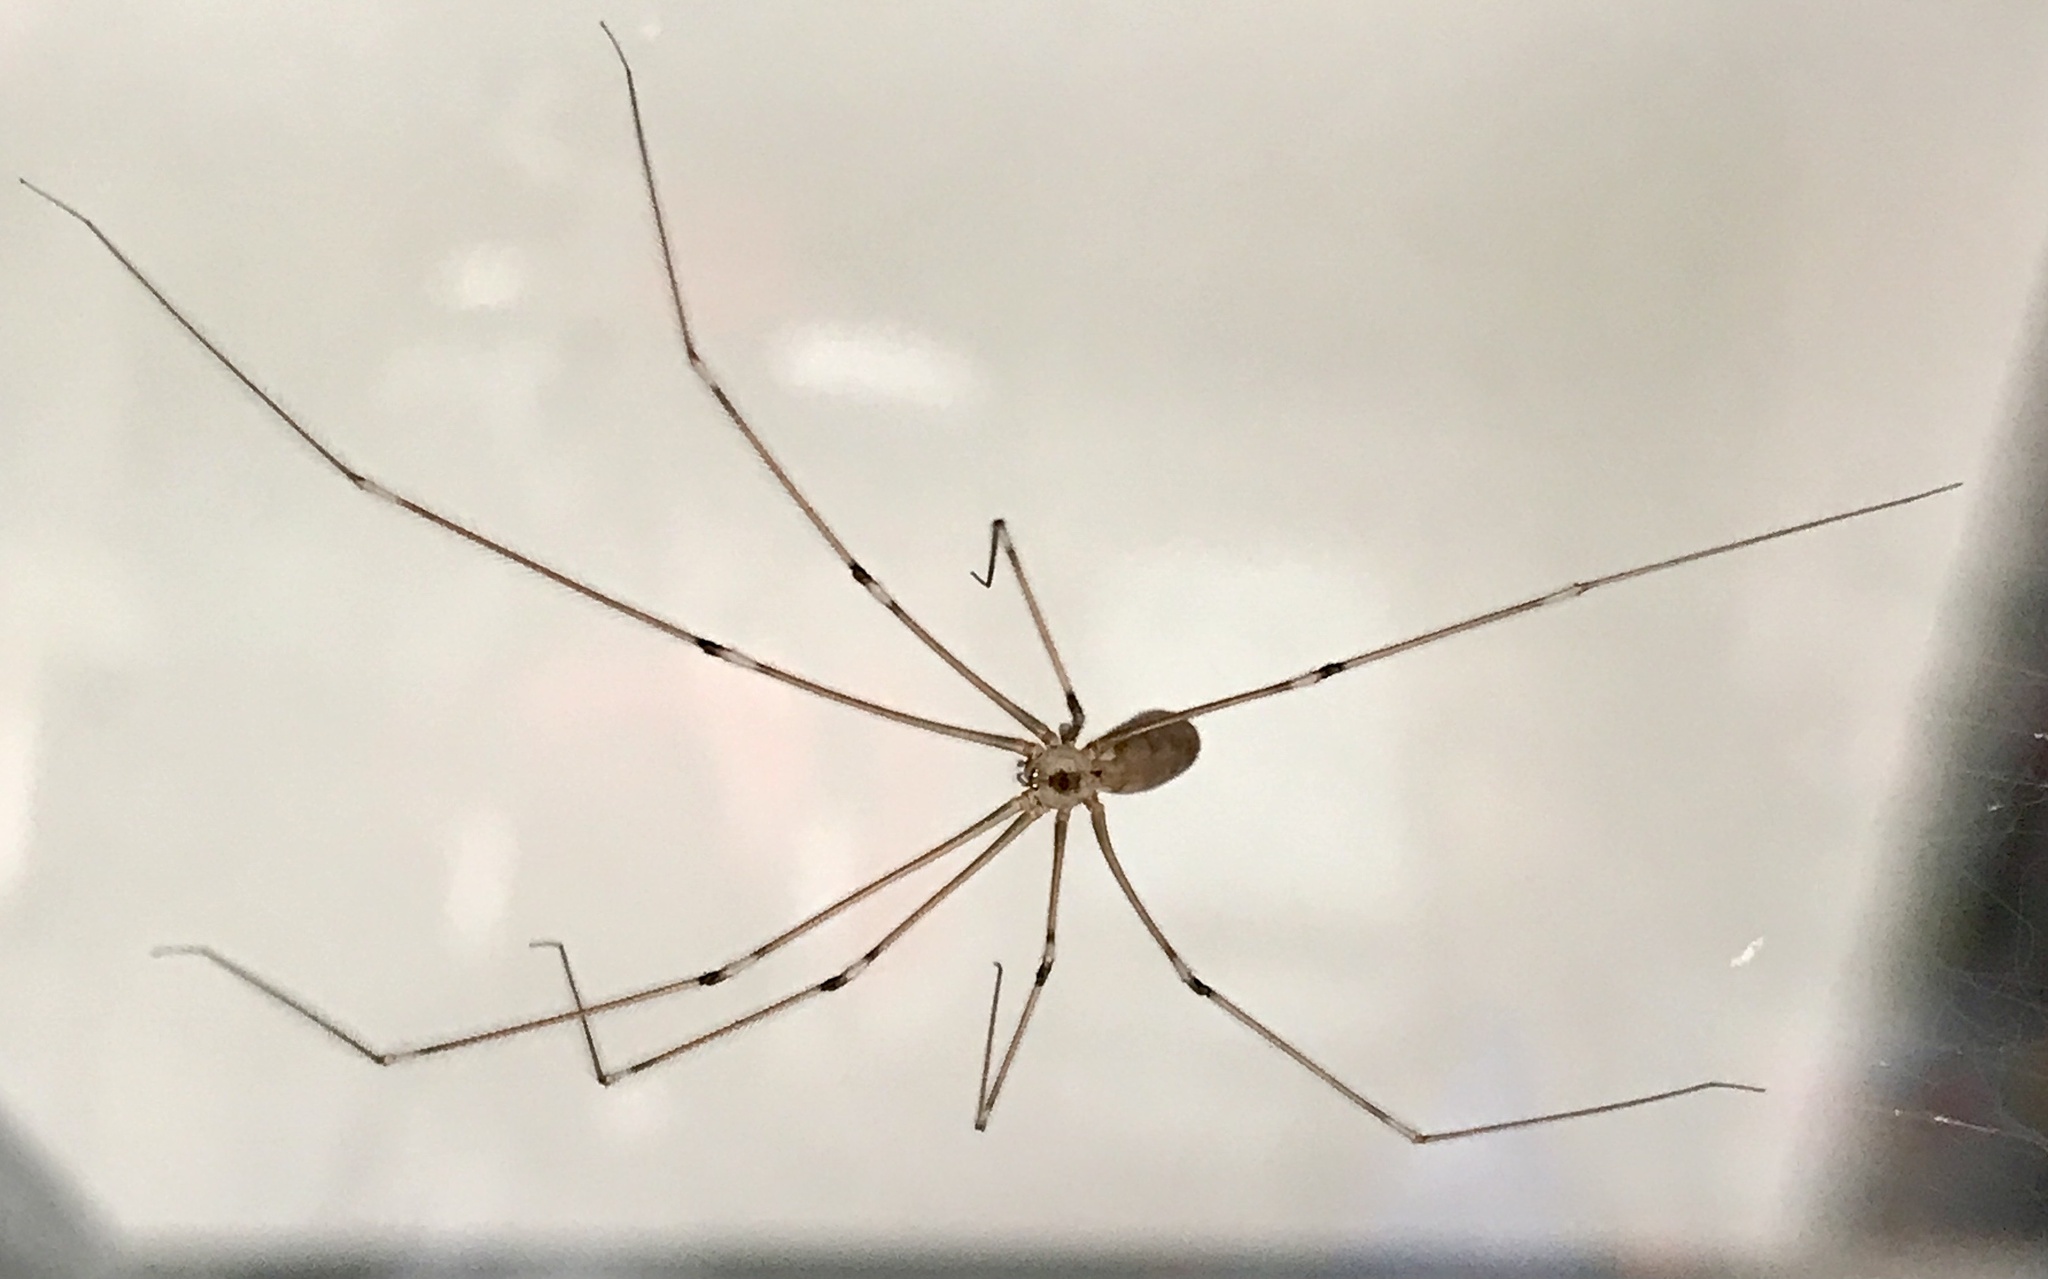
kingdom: Animalia
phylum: Arthropoda
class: Arachnida
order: Araneae
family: Pholcidae
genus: Pholcus
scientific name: Pholcus phalangioides
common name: Longbodied cellar spider
